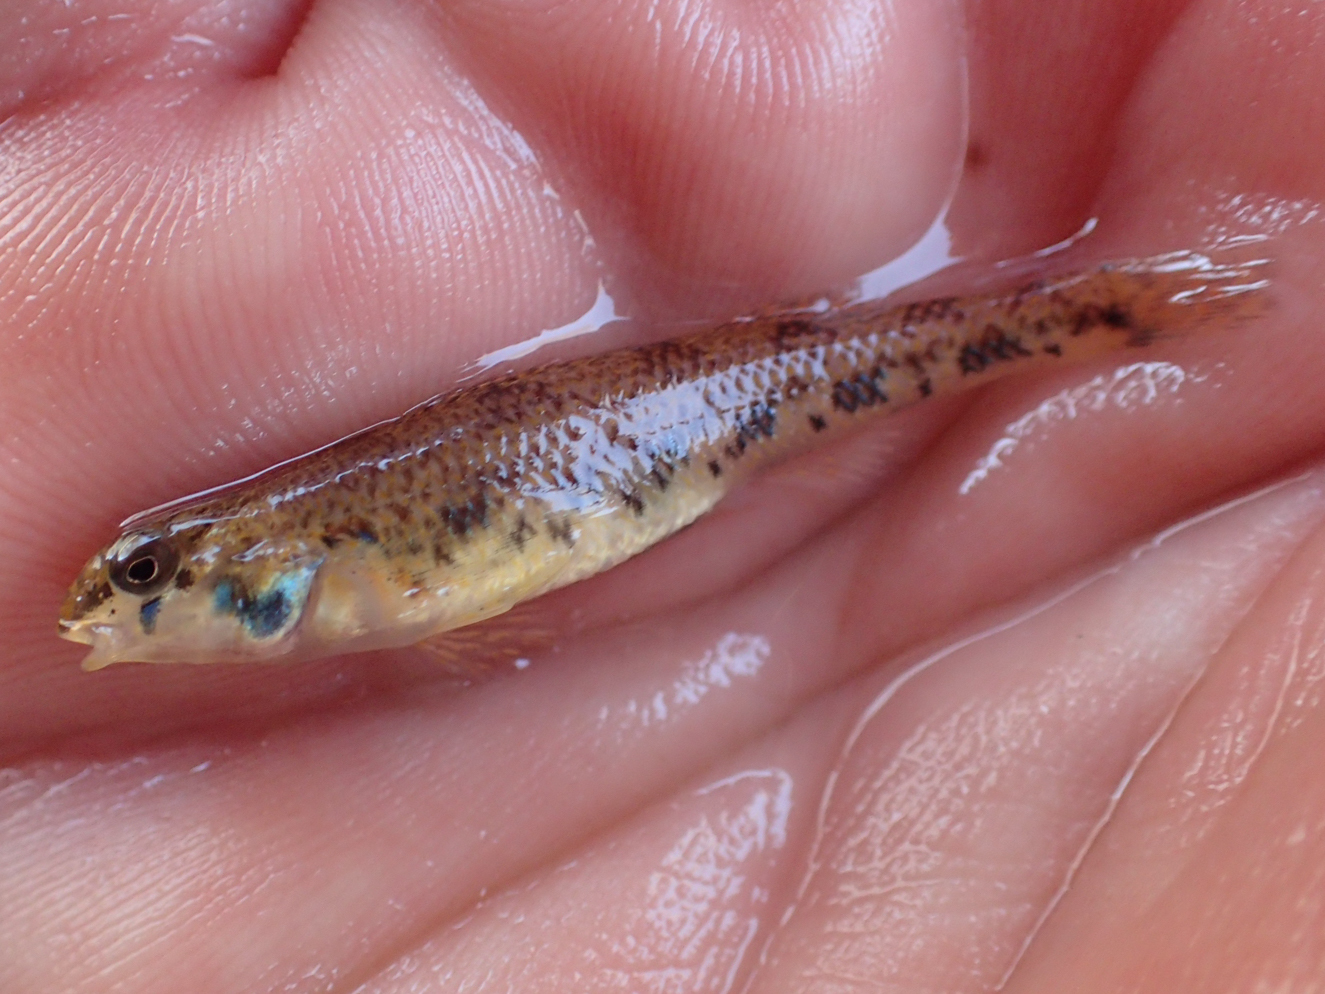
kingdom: Animalia
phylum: Chordata
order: Perciformes
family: Percidae
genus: Etheostoma
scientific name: Etheostoma jimmycarter
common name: Bluegrass darter
